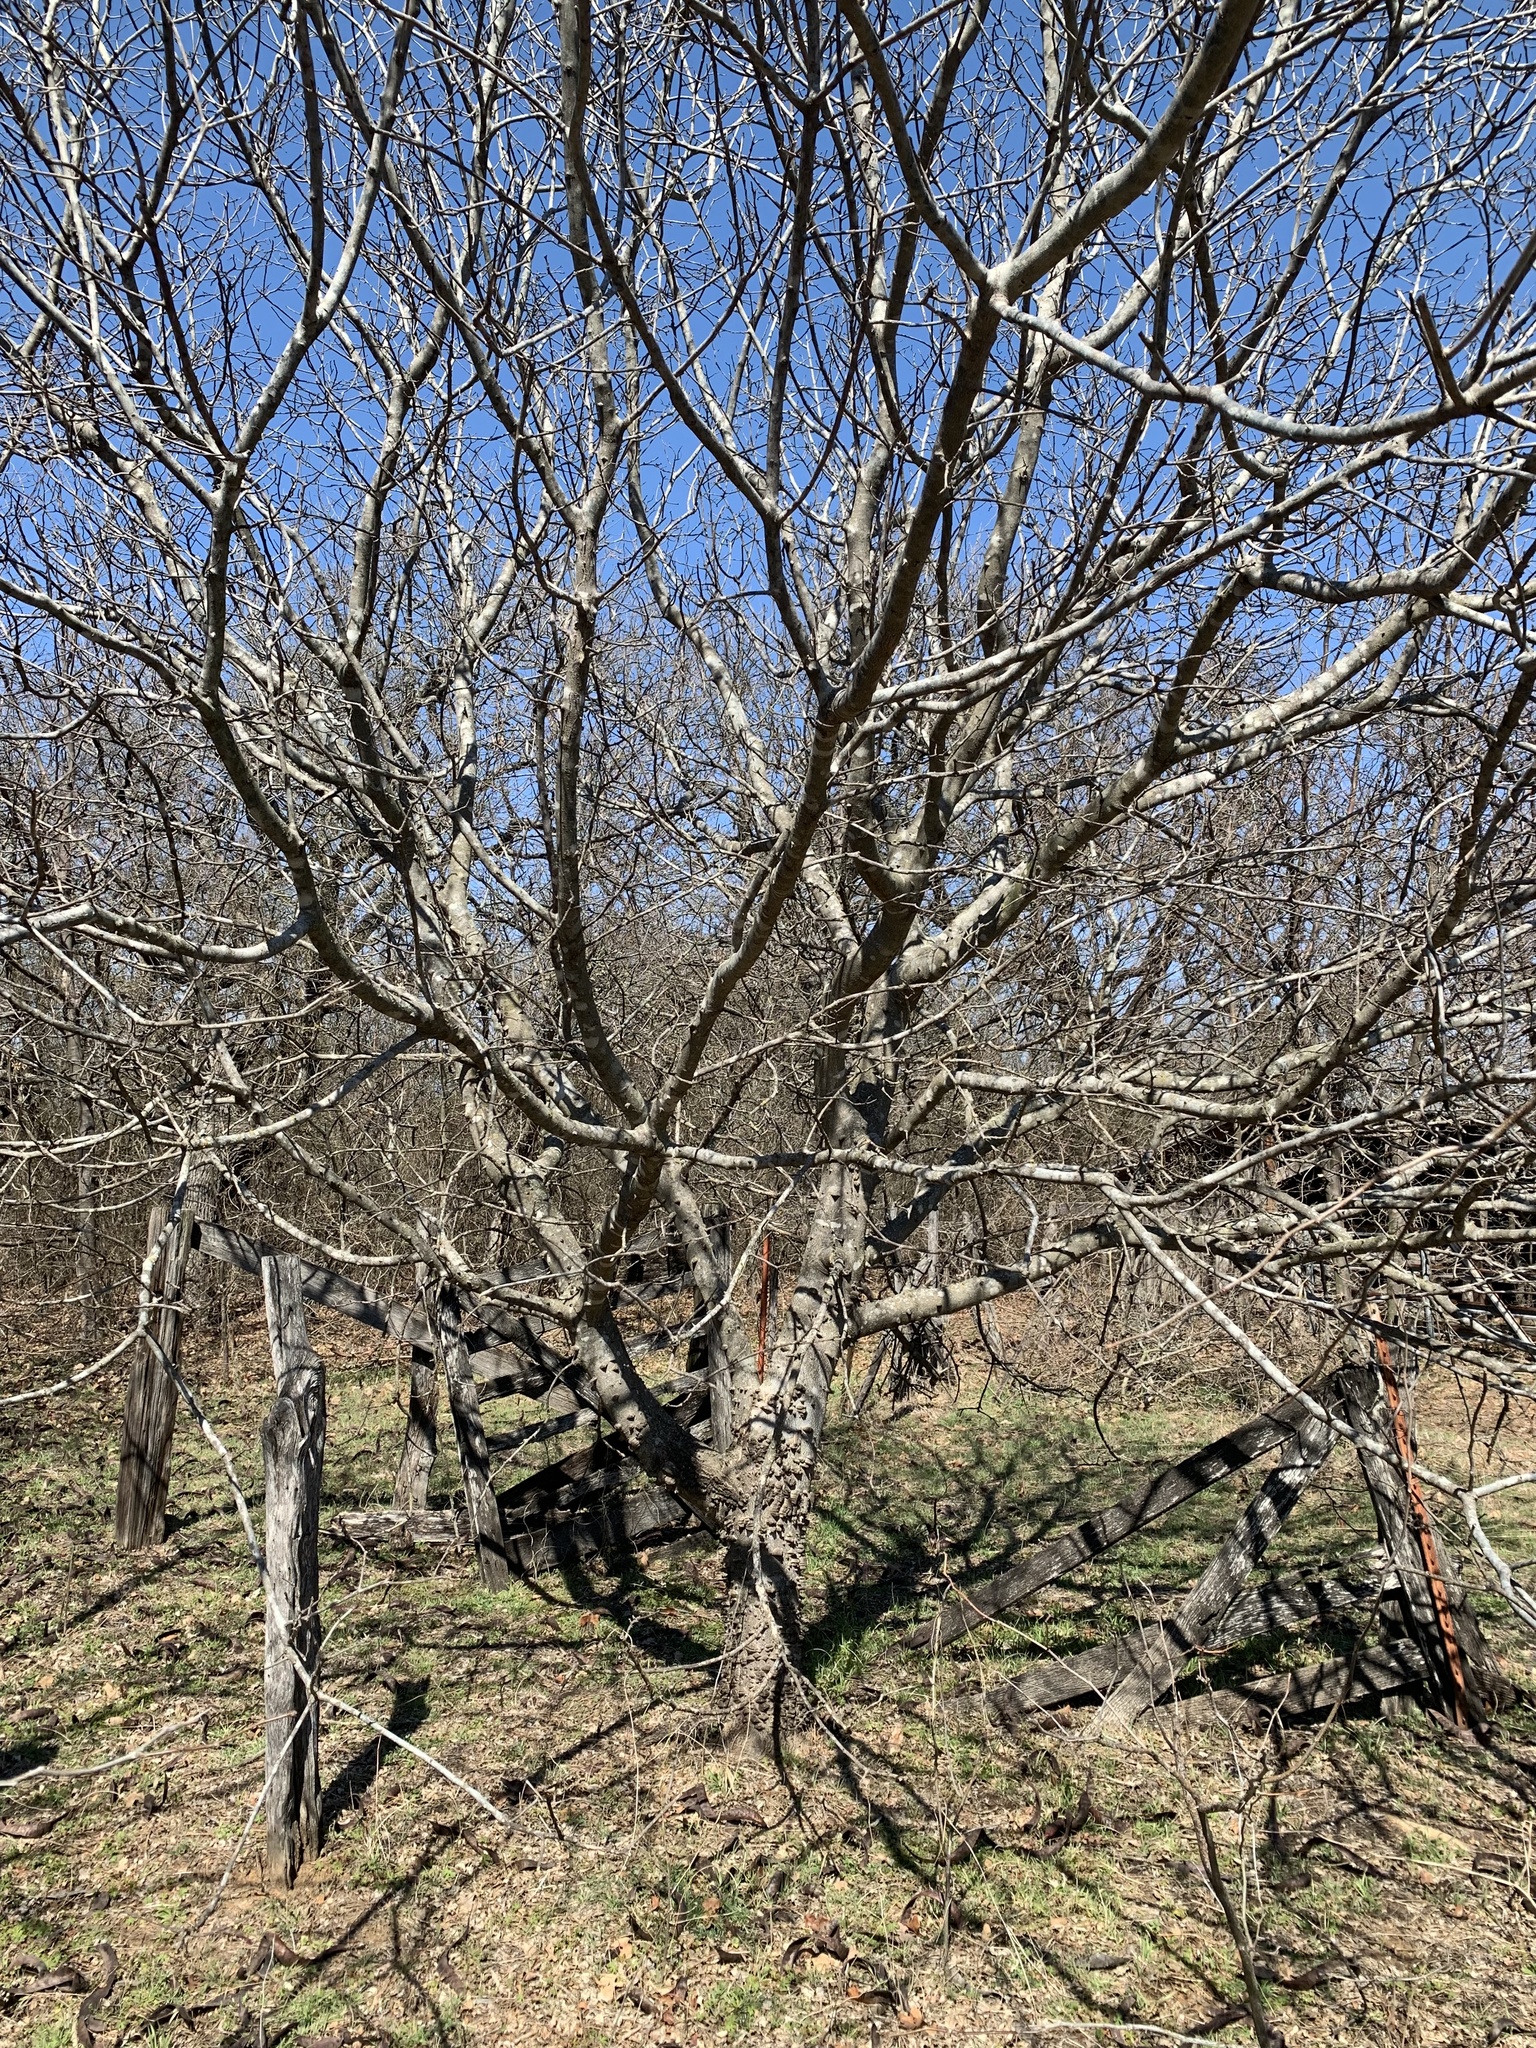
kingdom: Plantae
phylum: Tracheophyta
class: Magnoliopsida
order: Sapindales
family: Rutaceae
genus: Zanthoxylum
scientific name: Zanthoxylum clava-herculis
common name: Hercules'-club
